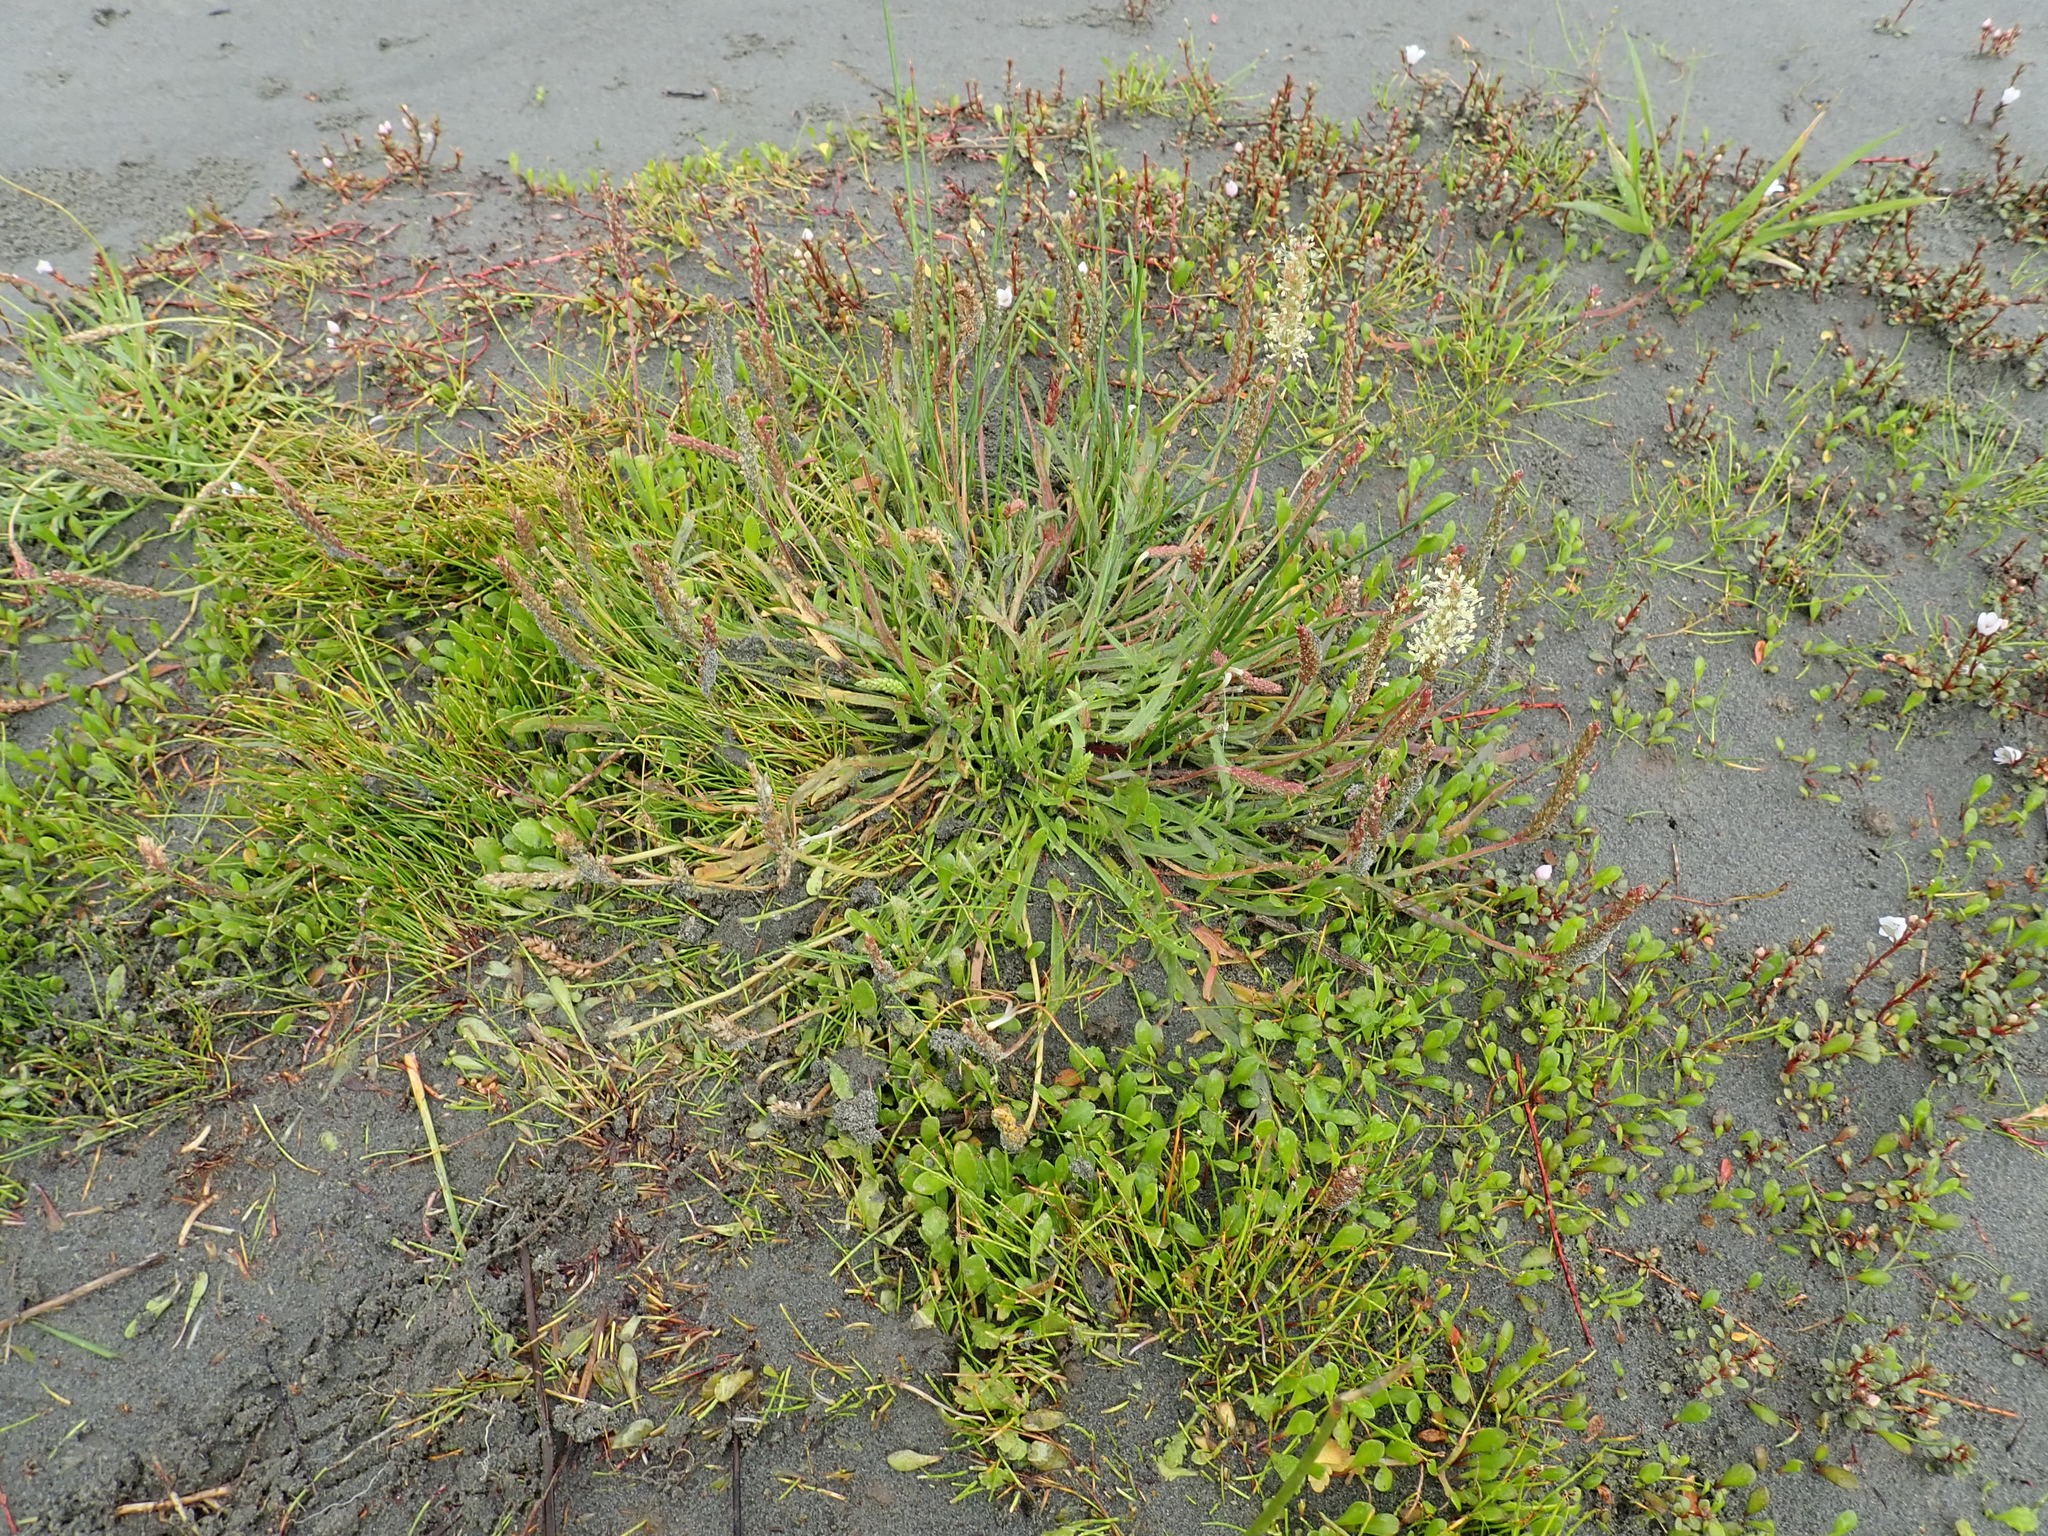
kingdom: Plantae
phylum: Tracheophyta
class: Magnoliopsida
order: Lamiales
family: Plantaginaceae
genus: Plantago
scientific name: Plantago coronopus
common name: Buck's-horn plantain
